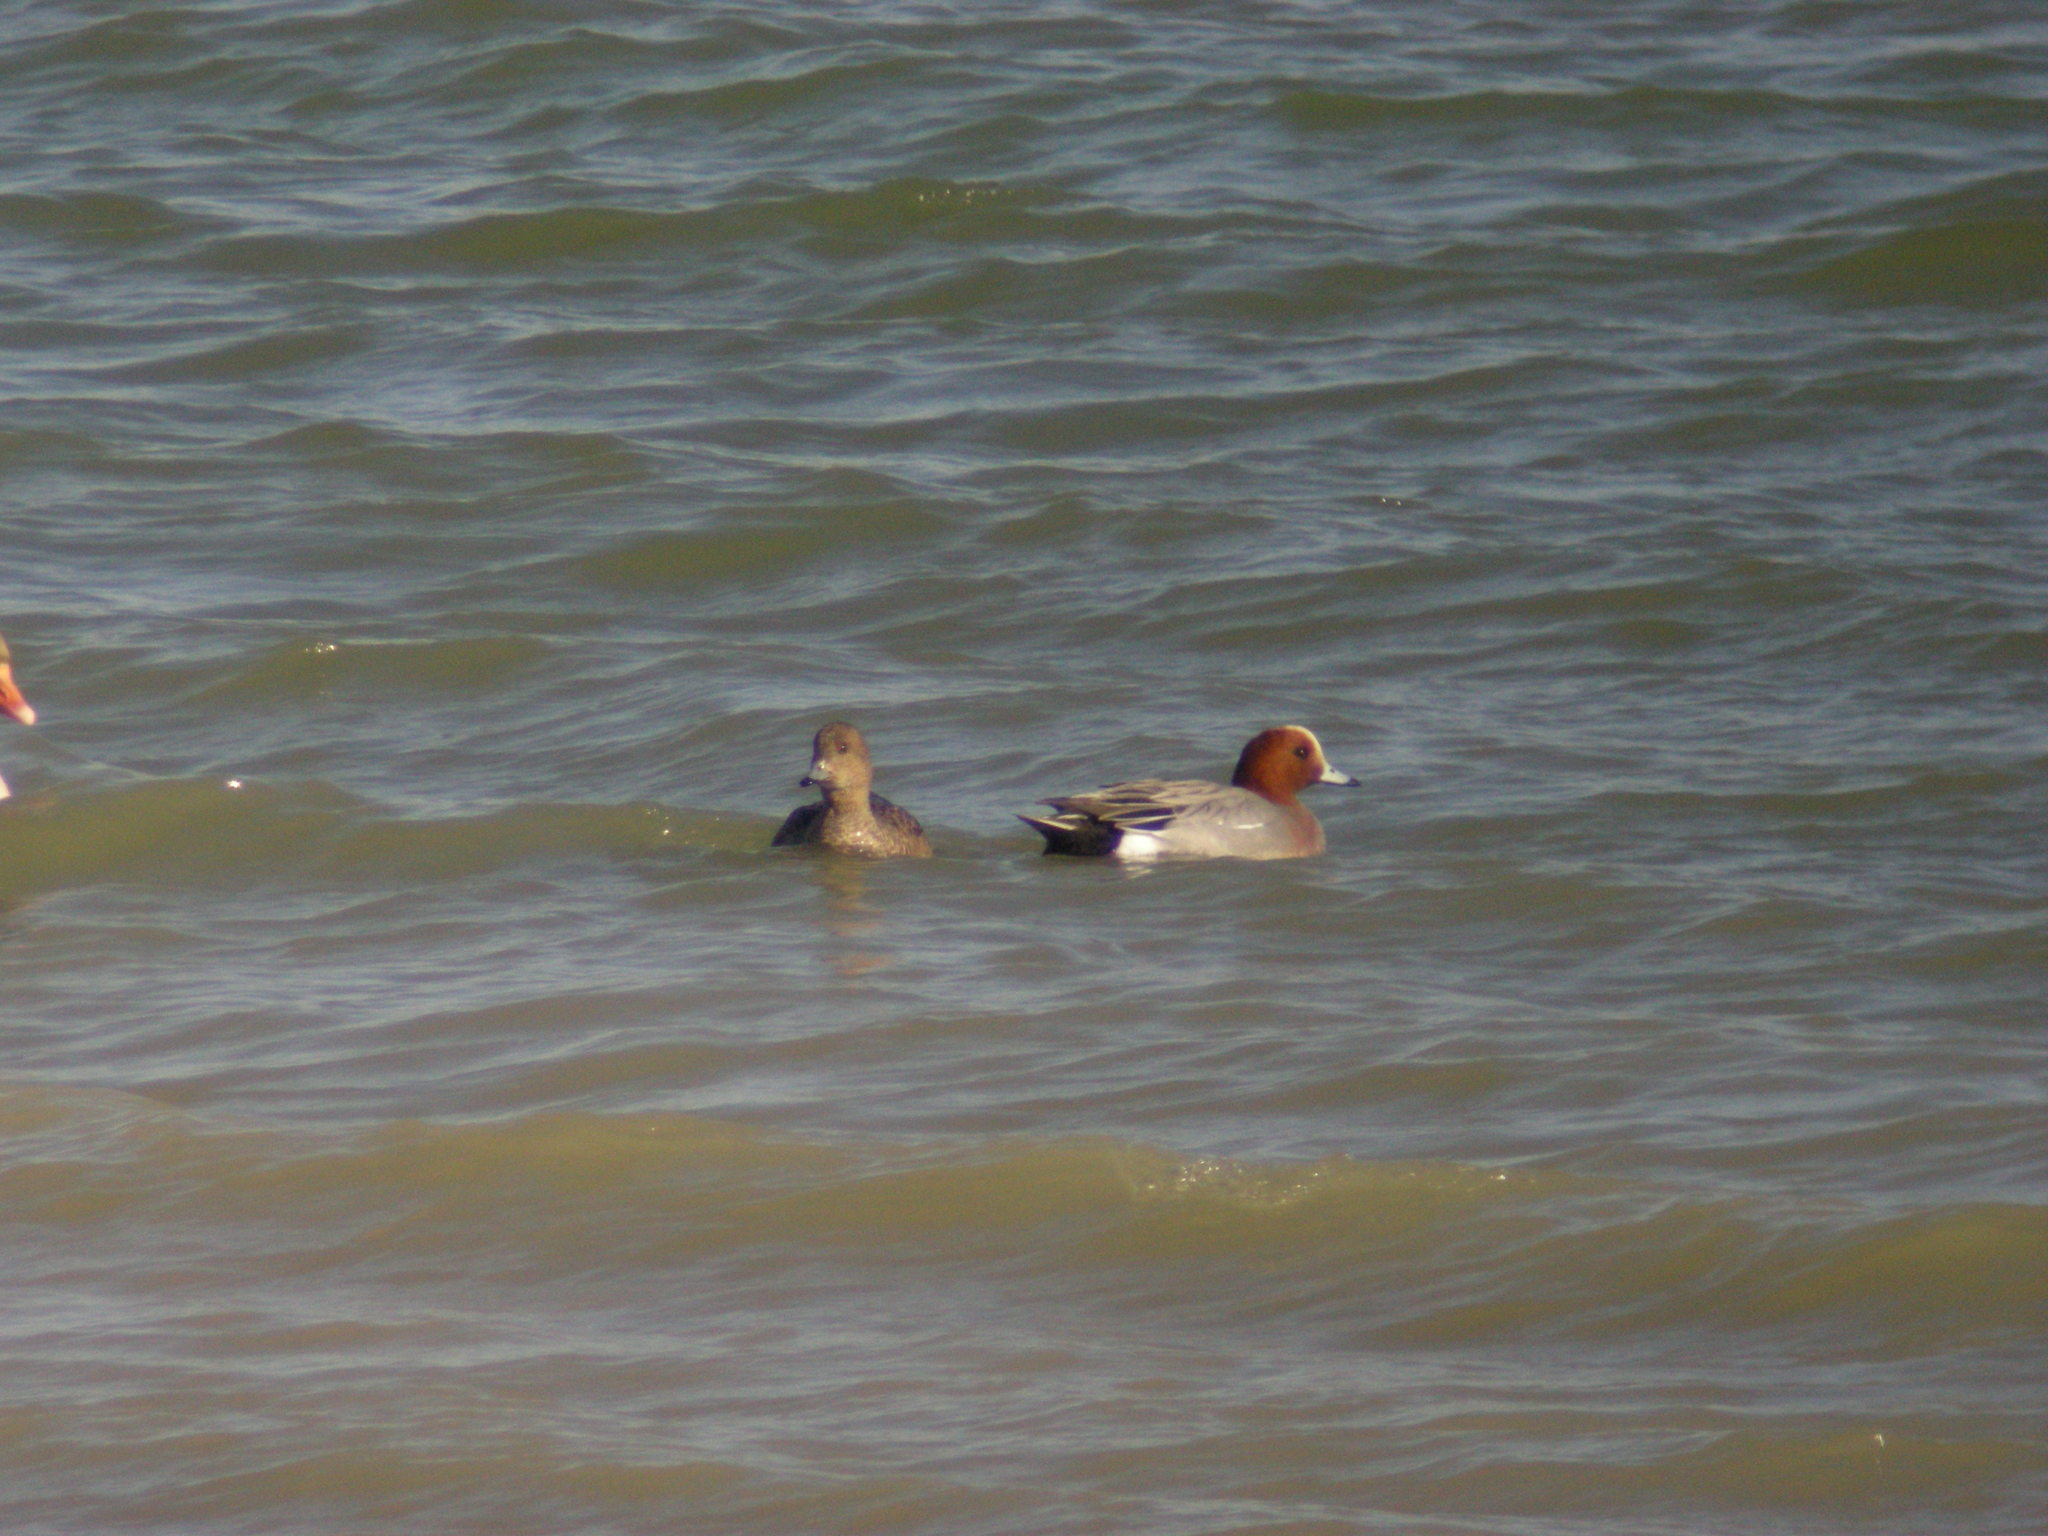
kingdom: Animalia
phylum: Chordata
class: Aves
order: Anseriformes
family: Anatidae
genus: Mareca
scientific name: Mareca penelope
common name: Eurasian wigeon
